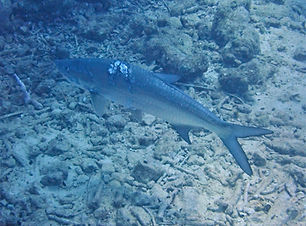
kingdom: Animalia
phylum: Chordata
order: Elopiformes
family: Megalopidae
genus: Megalops
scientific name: Megalops atlanticus
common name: Tarpon
